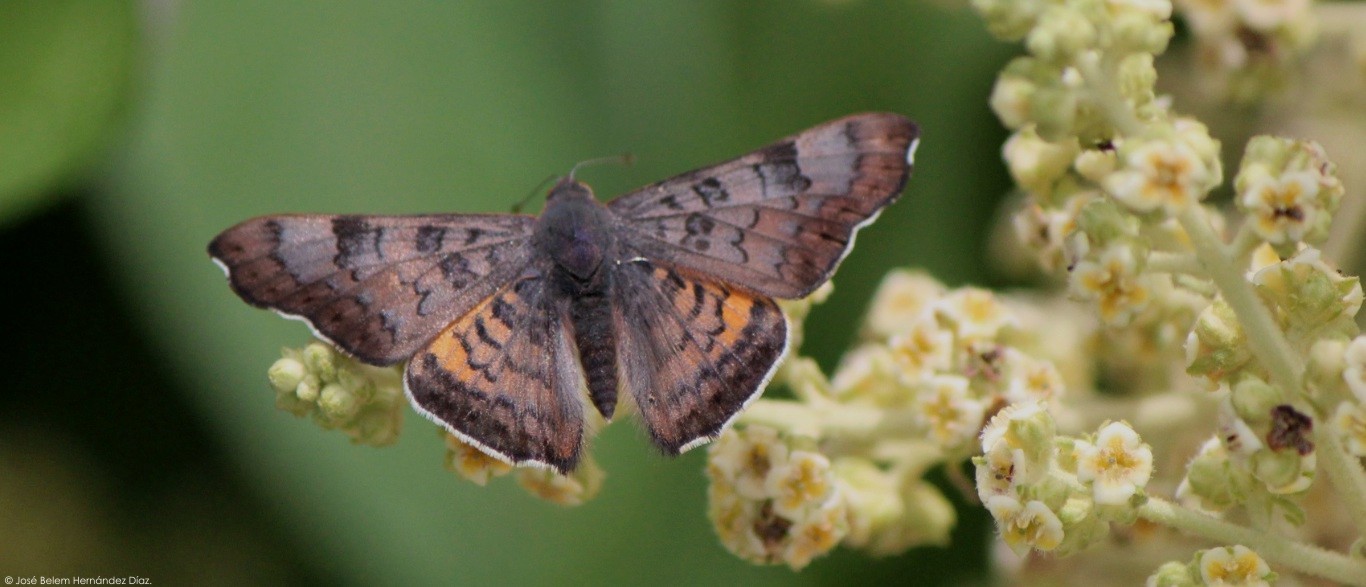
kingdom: Animalia
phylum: Arthropoda
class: Insecta
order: Lepidoptera
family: Riodinidae
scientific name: Riodinidae
